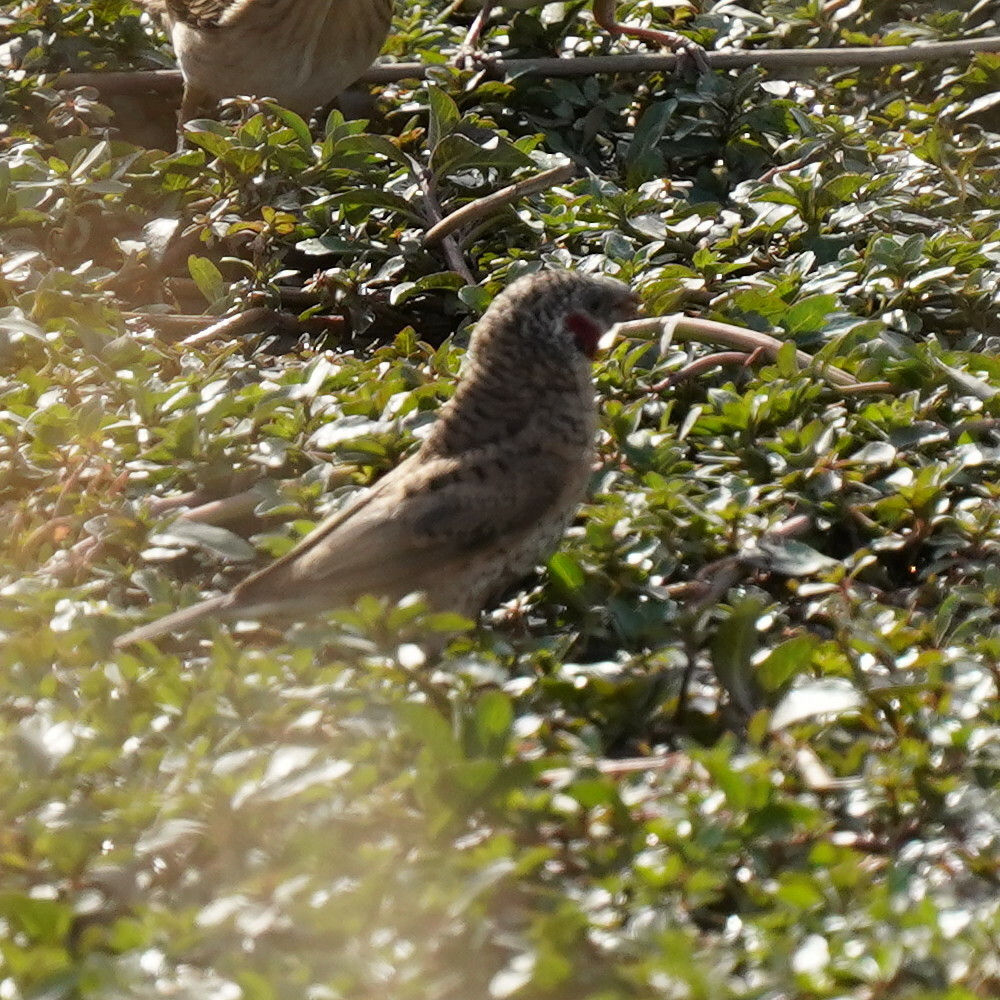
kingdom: Animalia
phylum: Chordata
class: Aves
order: Passeriformes
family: Estrildidae
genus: Amadina
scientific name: Amadina fasciata
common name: Cut-throat finch
